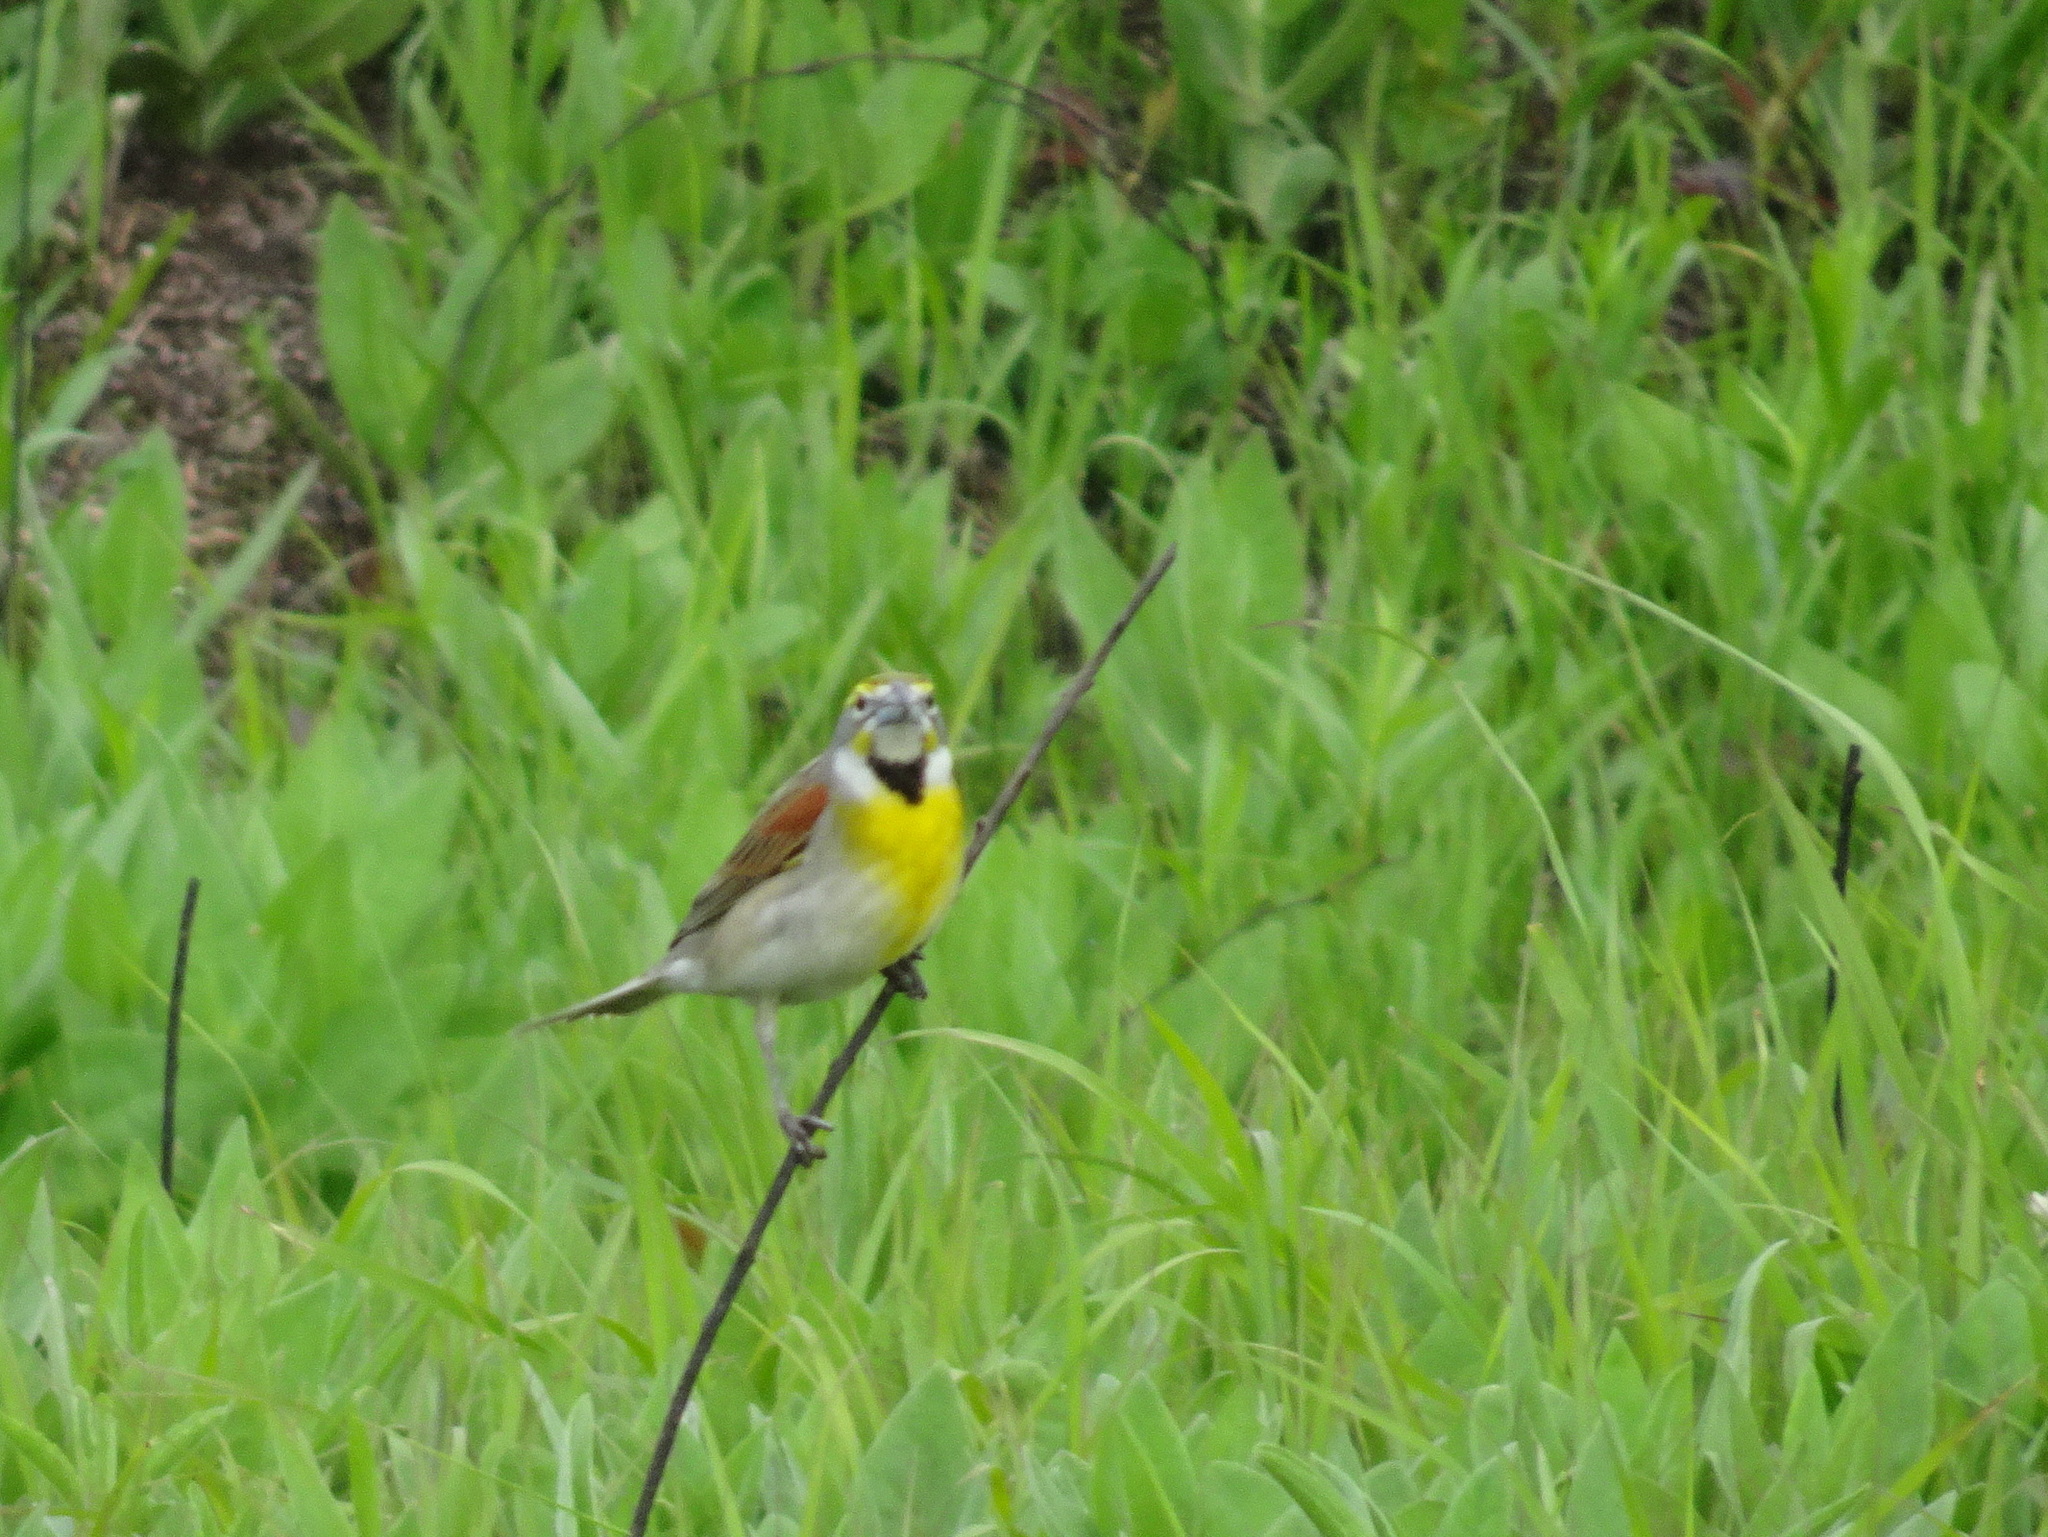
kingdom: Animalia
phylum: Chordata
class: Aves
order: Passeriformes
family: Cardinalidae
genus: Spiza
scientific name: Spiza americana
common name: Dickcissel
